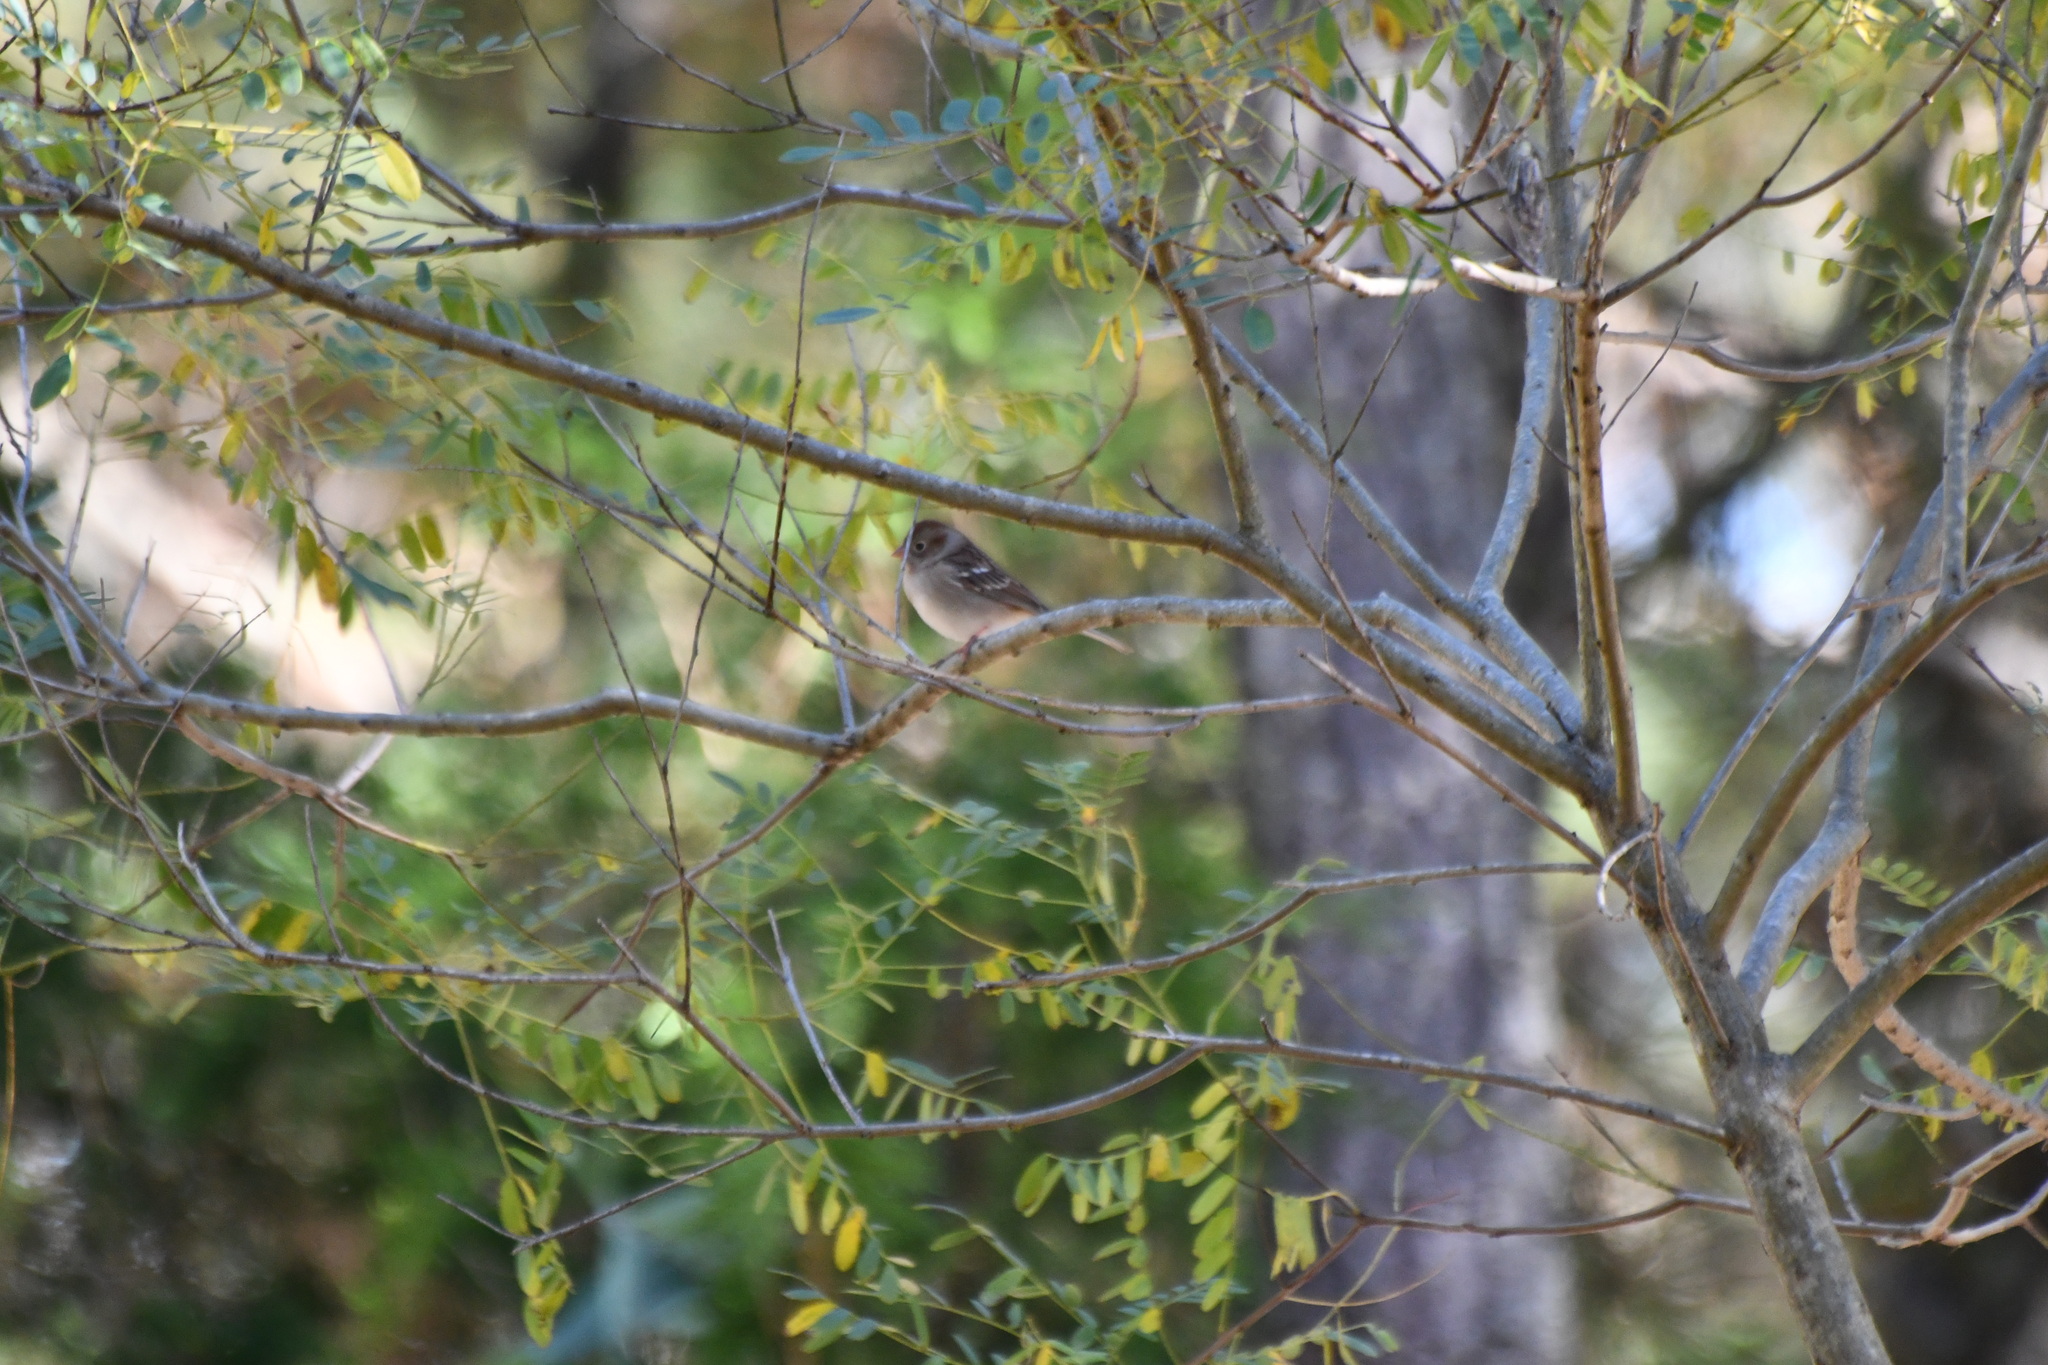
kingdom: Animalia
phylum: Chordata
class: Aves
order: Passeriformes
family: Passerellidae
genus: Spizella
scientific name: Spizella pusilla
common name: Field sparrow
